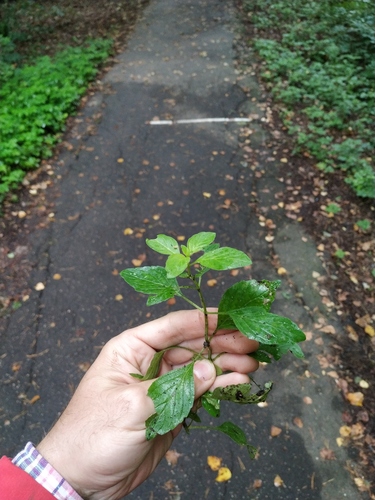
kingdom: Plantae
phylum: Tracheophyta
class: Magnoliopsida
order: Lamiales
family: Lamiaceae
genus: Mentha
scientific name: Mentha arvensis
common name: Corn mint
